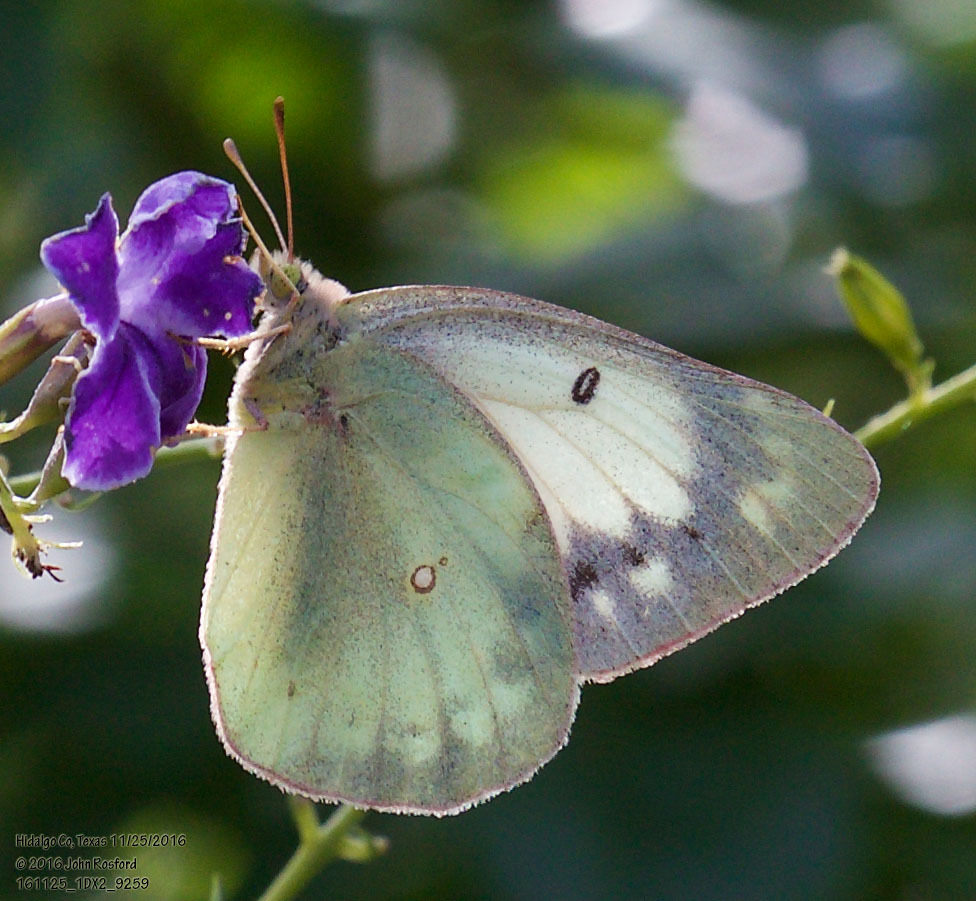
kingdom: Animalia
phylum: Arthropoda
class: Insecta
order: Lepidoptera
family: Pieridae
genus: Colias
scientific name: Colias eurytheme
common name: Alfalfa butterfly
